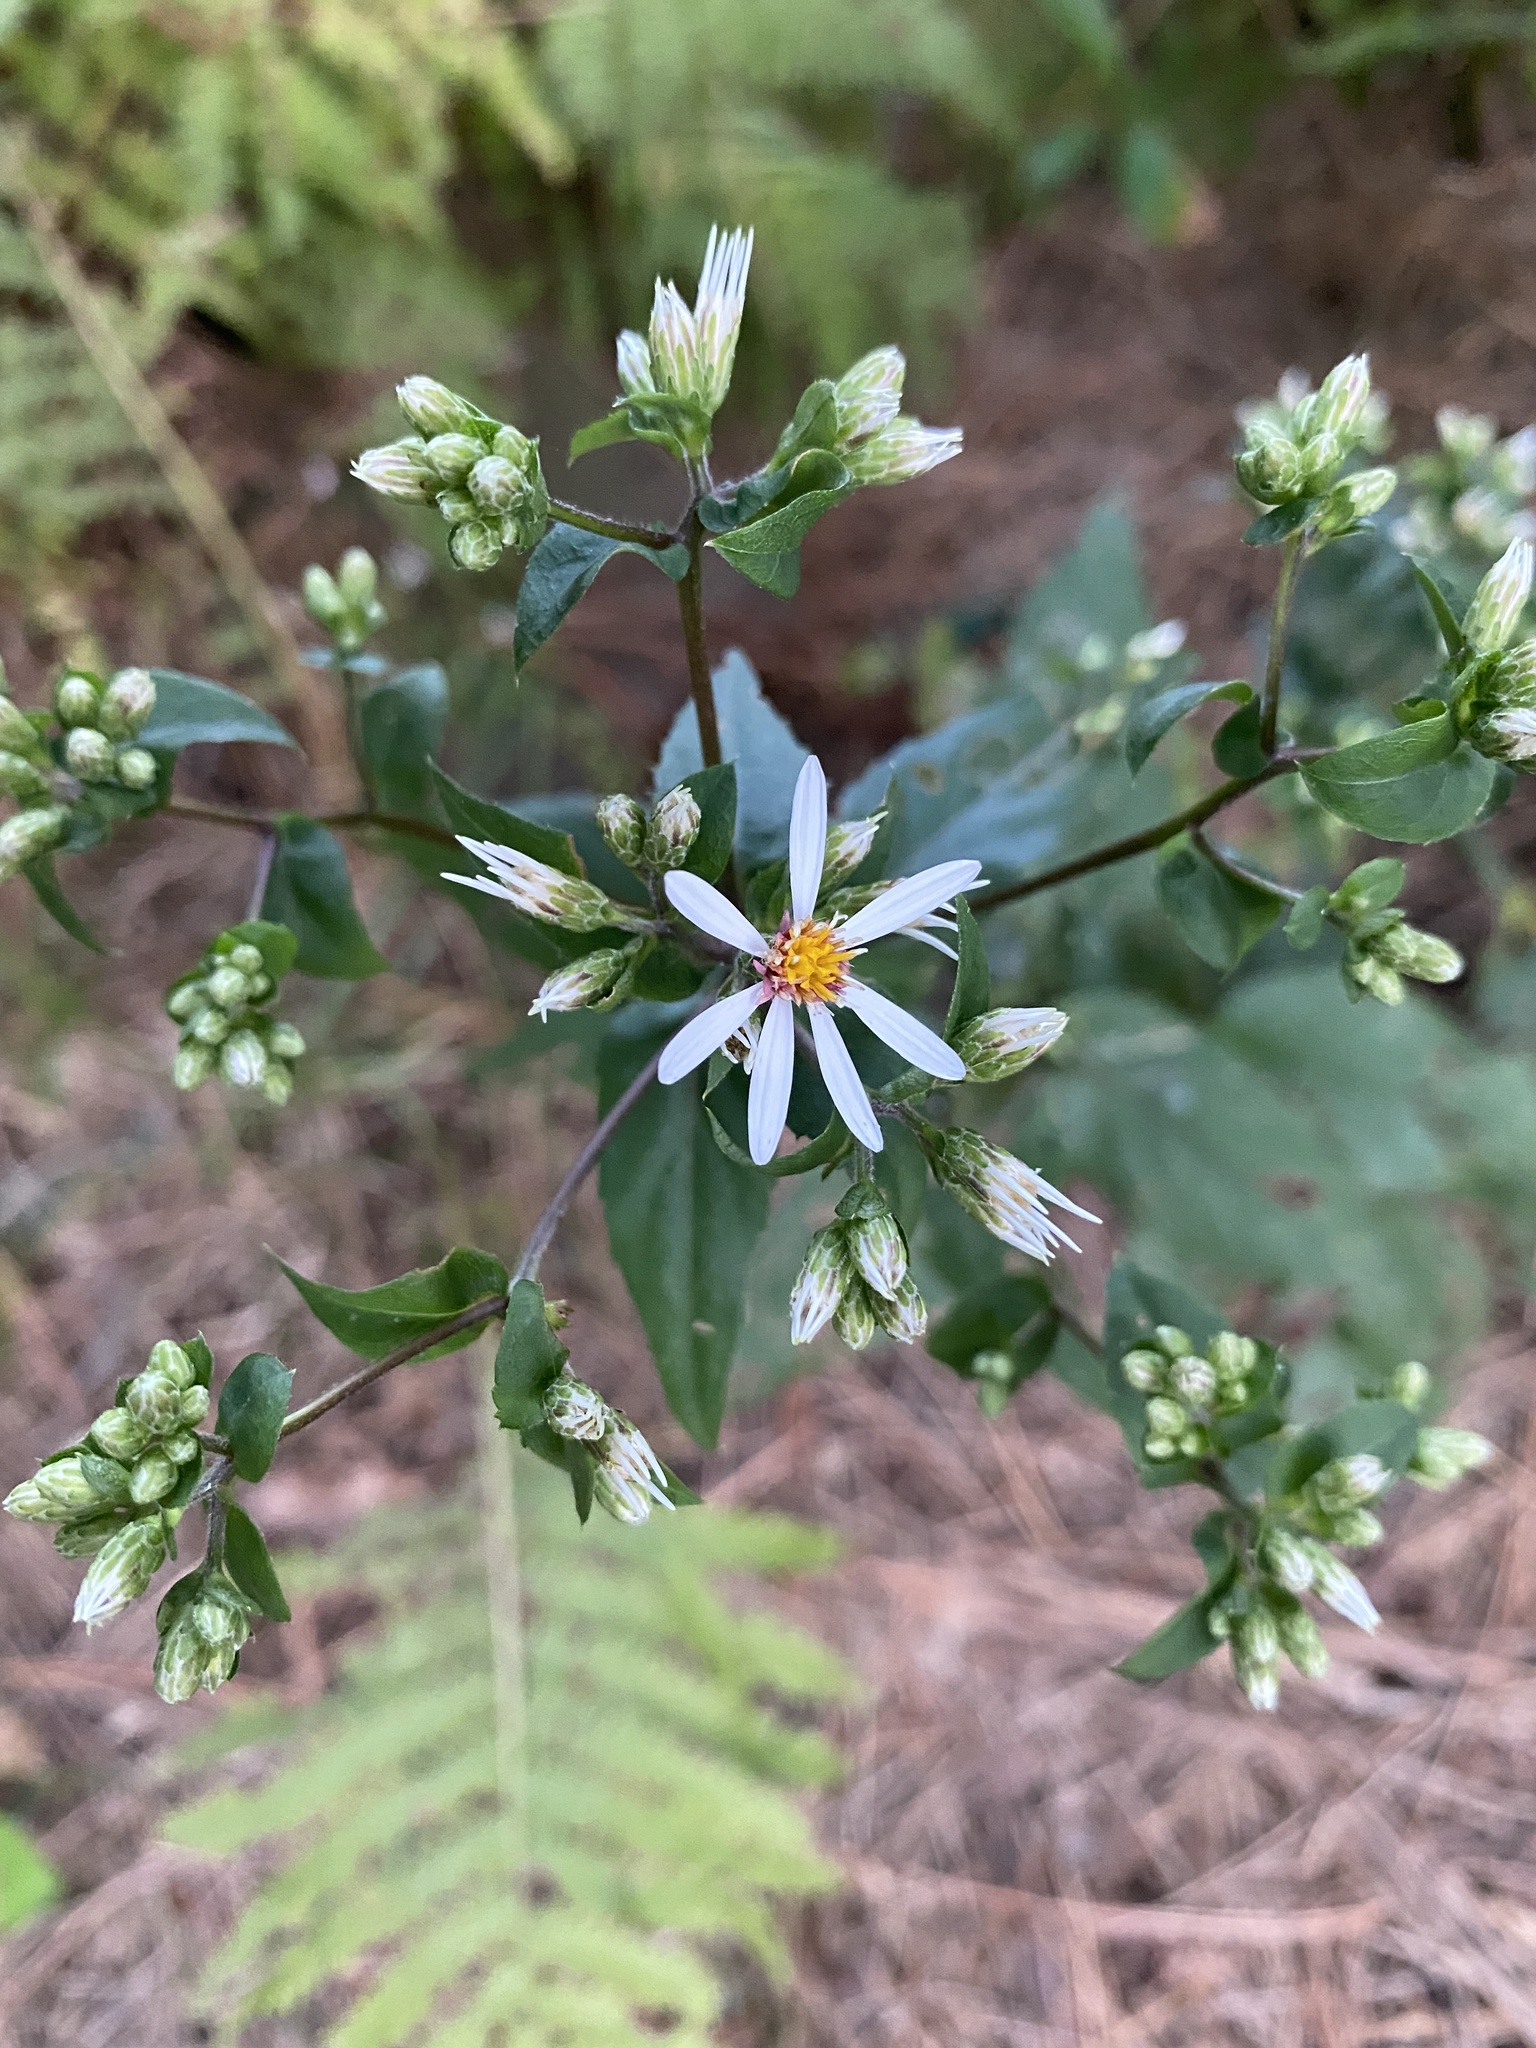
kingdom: Plantae
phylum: Tracheophyta
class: Magnoliopsida
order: Asterales
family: Asteraceae
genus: Eurybia
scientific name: Eurybia divaricata
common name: White wood aster
